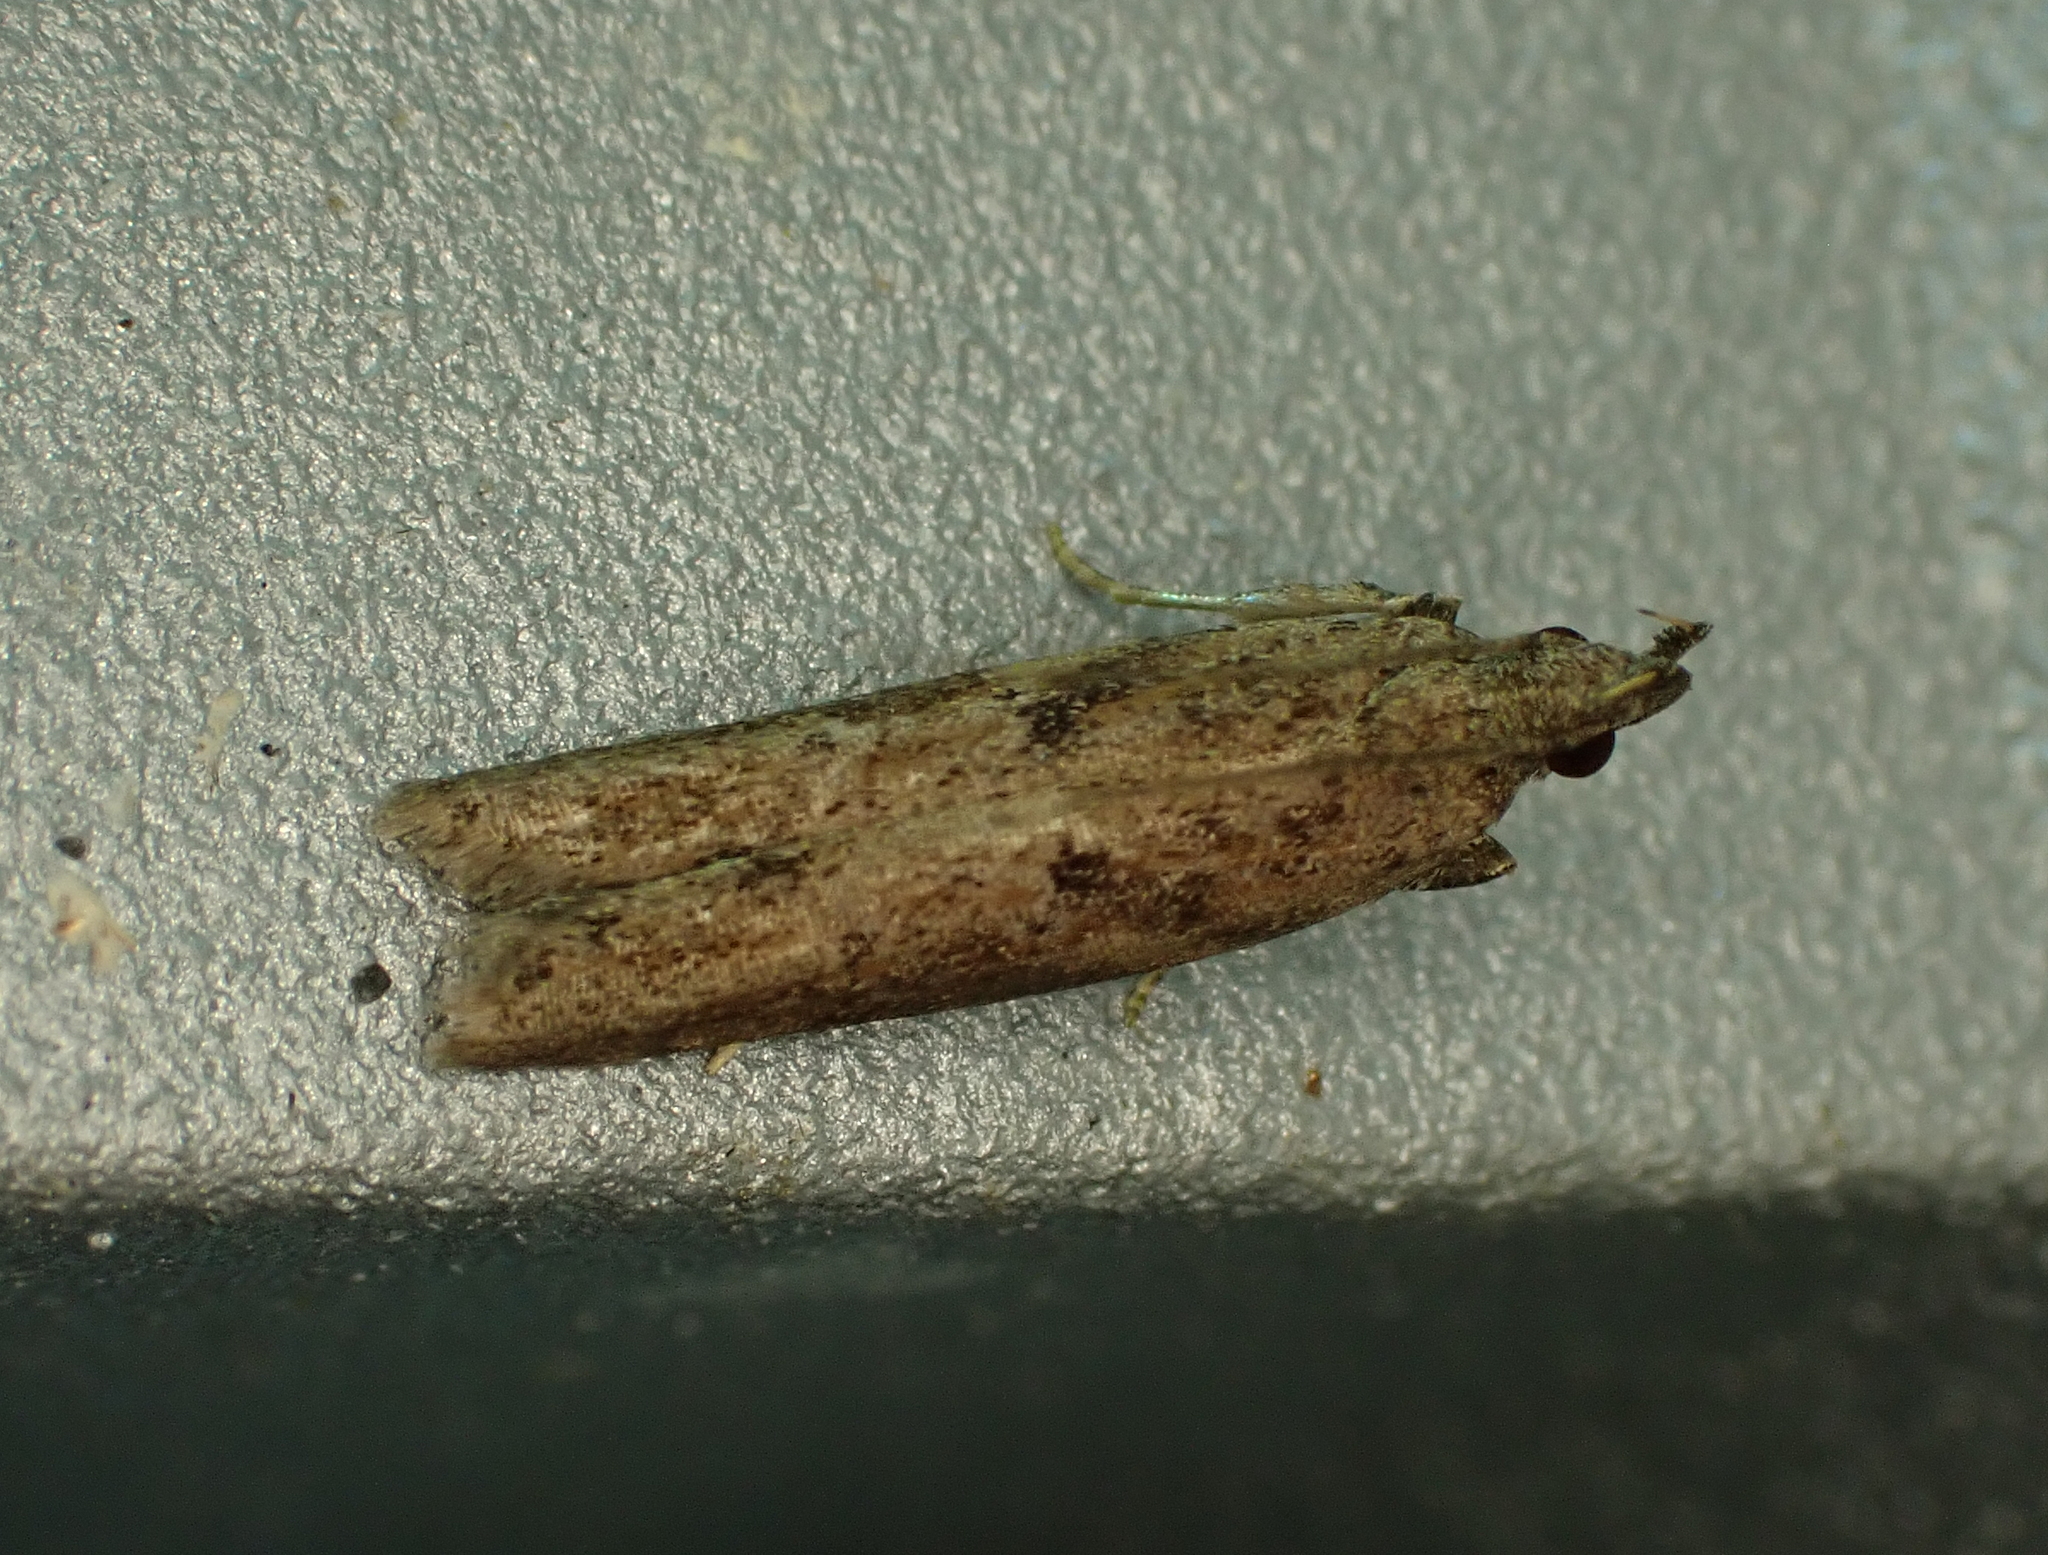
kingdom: Animalia
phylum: Arthropoda
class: Insecta
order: Lepidoptera
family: Depressariidae
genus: Eutorna
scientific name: Eutorna phaulocosma
